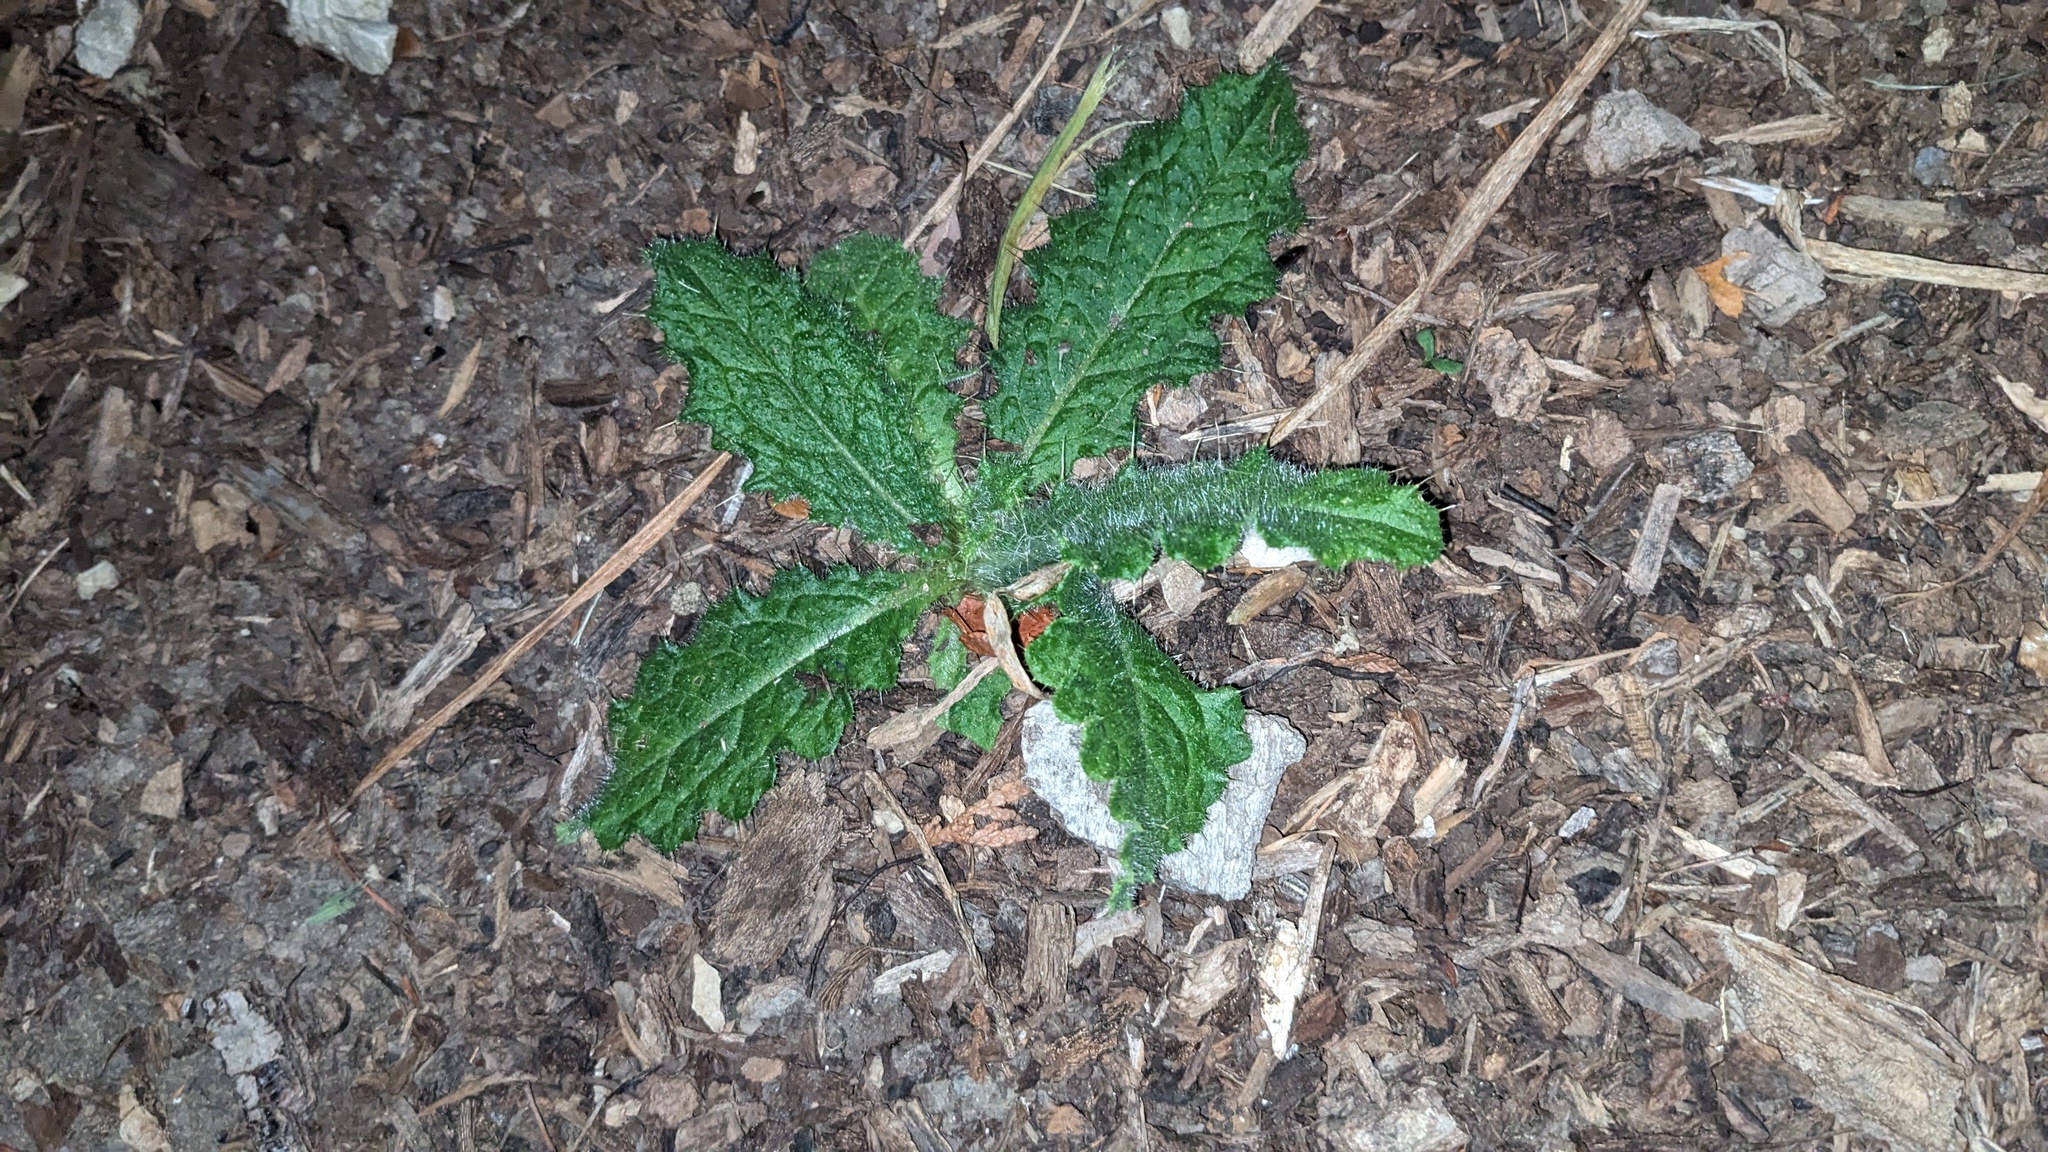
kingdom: Plantae
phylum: Tracheophyta
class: Magnoliopsida
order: Asterales
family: Asteraceae
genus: Cirsium
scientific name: Cirsium vulgare
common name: Bull thistle
